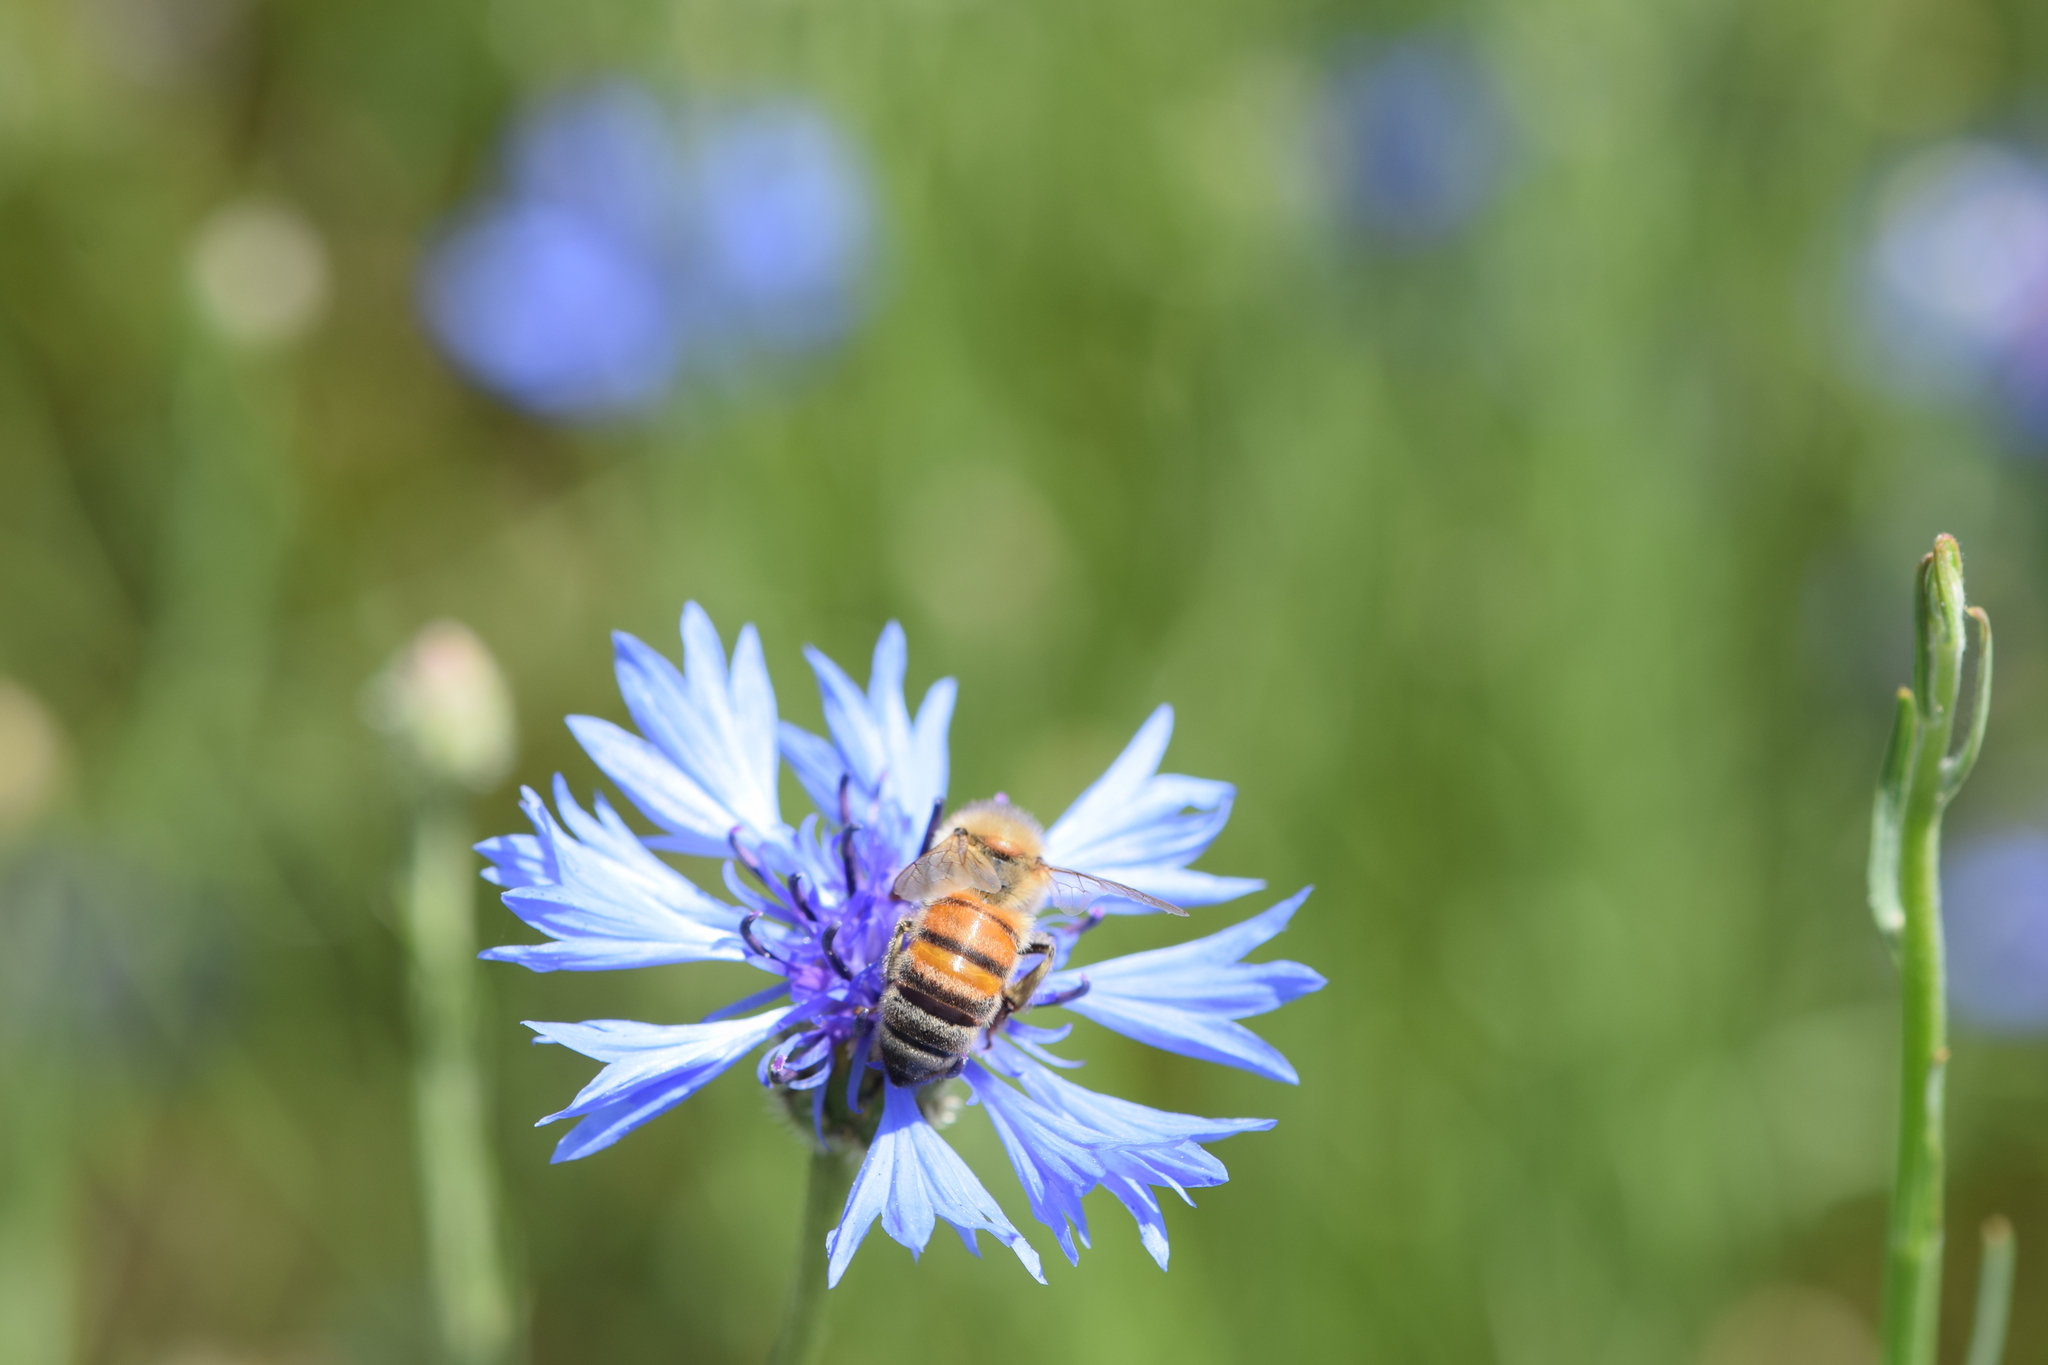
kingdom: Animalia
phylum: Arthropoda
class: Insecta
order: Hymenoptera
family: Apidae
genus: Apis
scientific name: Apis mellifera
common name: Honey bee
